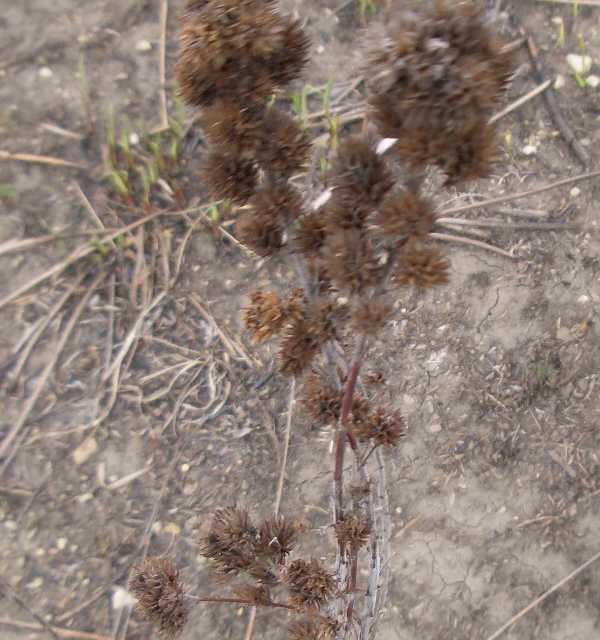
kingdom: Plantae
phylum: Tracheophyta
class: Magnoliopsida
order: Fabales
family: Fabaceae
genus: Lespedeza
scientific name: Lespedeza capitata
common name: Dusty clover
